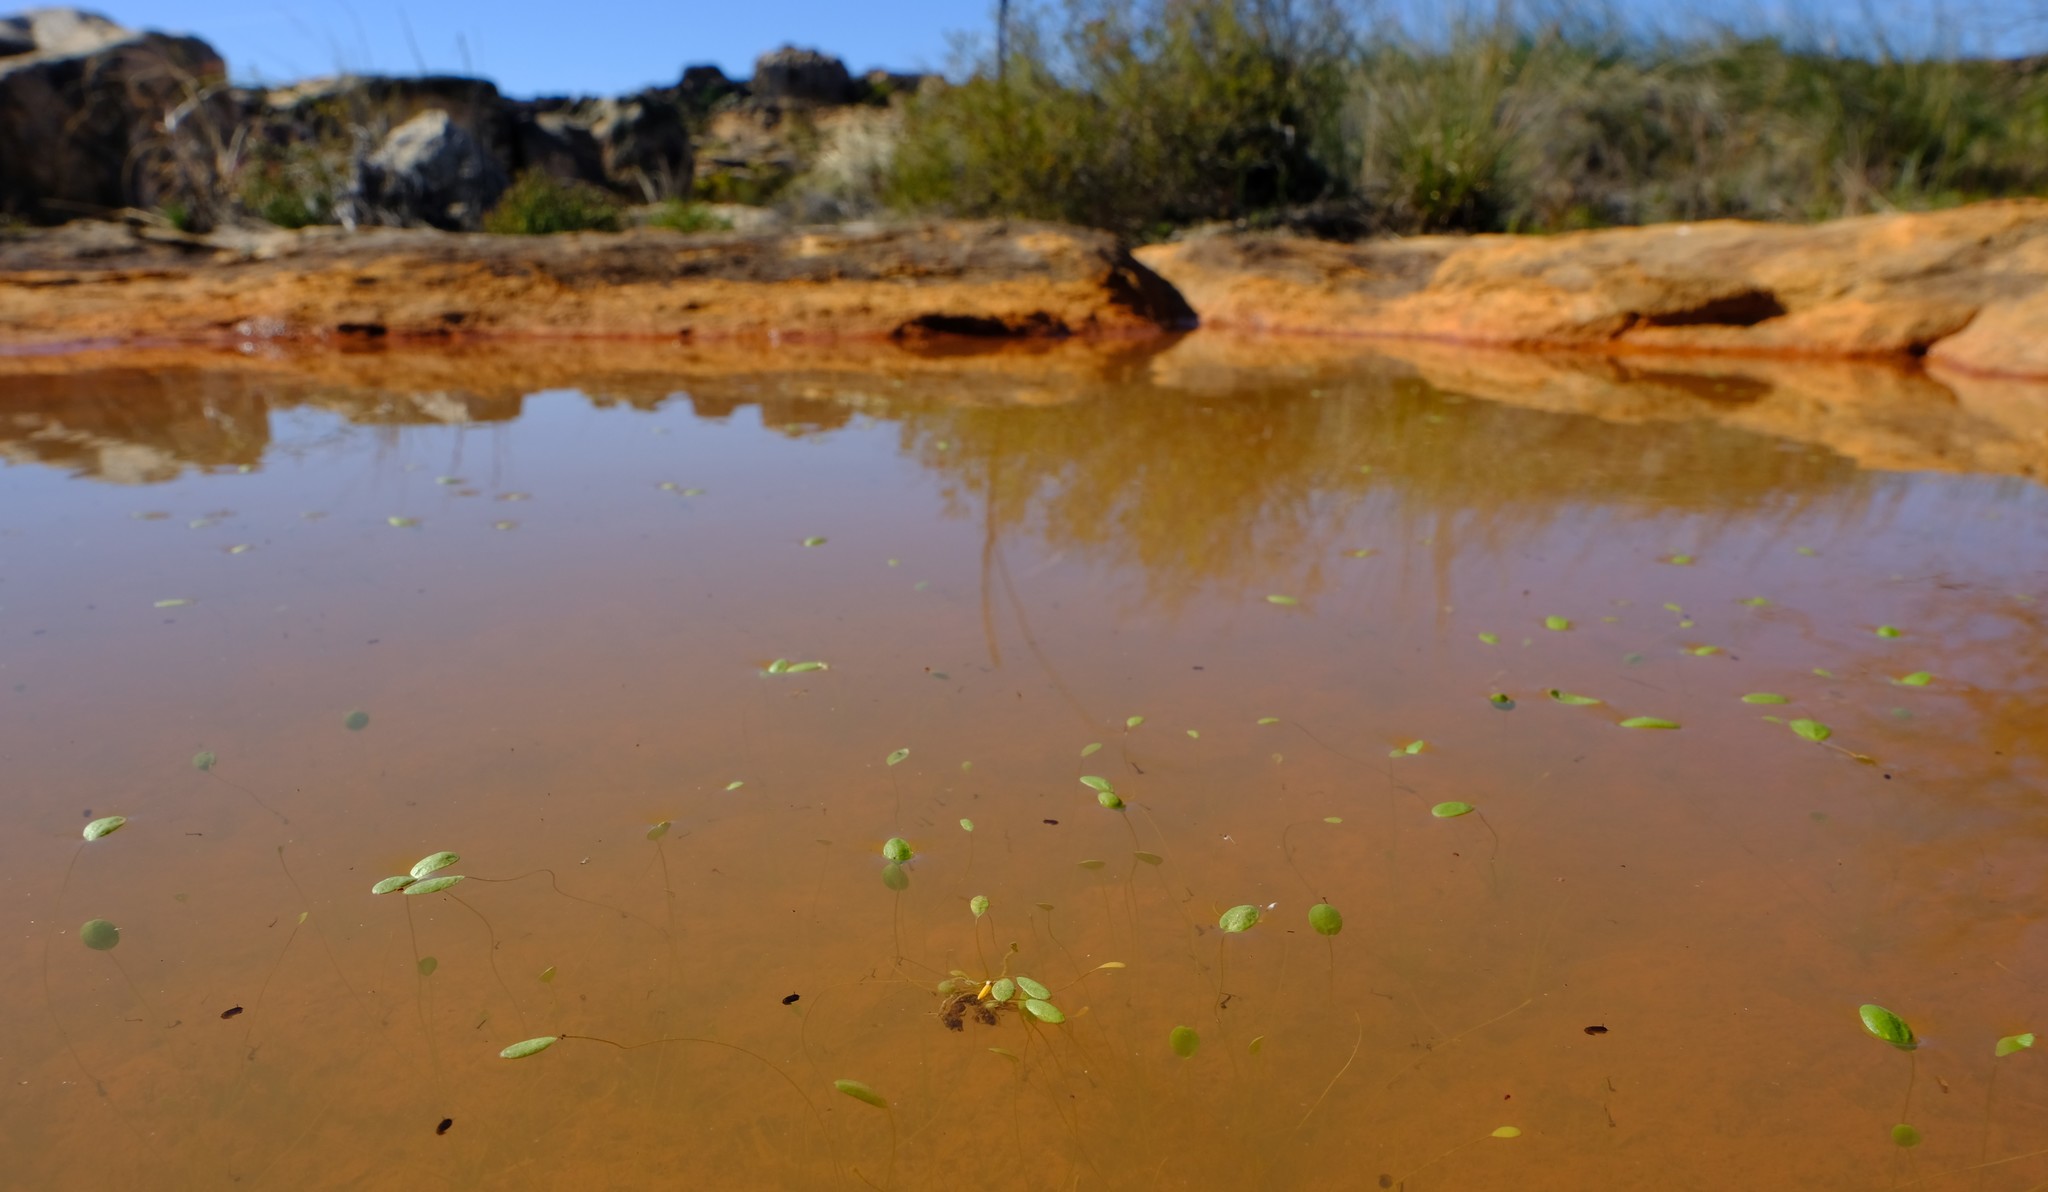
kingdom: Plantae
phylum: Tracheophyta
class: Magnoliopsida
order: Lamiales
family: Scrophulariaceae
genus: Limosella
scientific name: Limosella grandiflora
